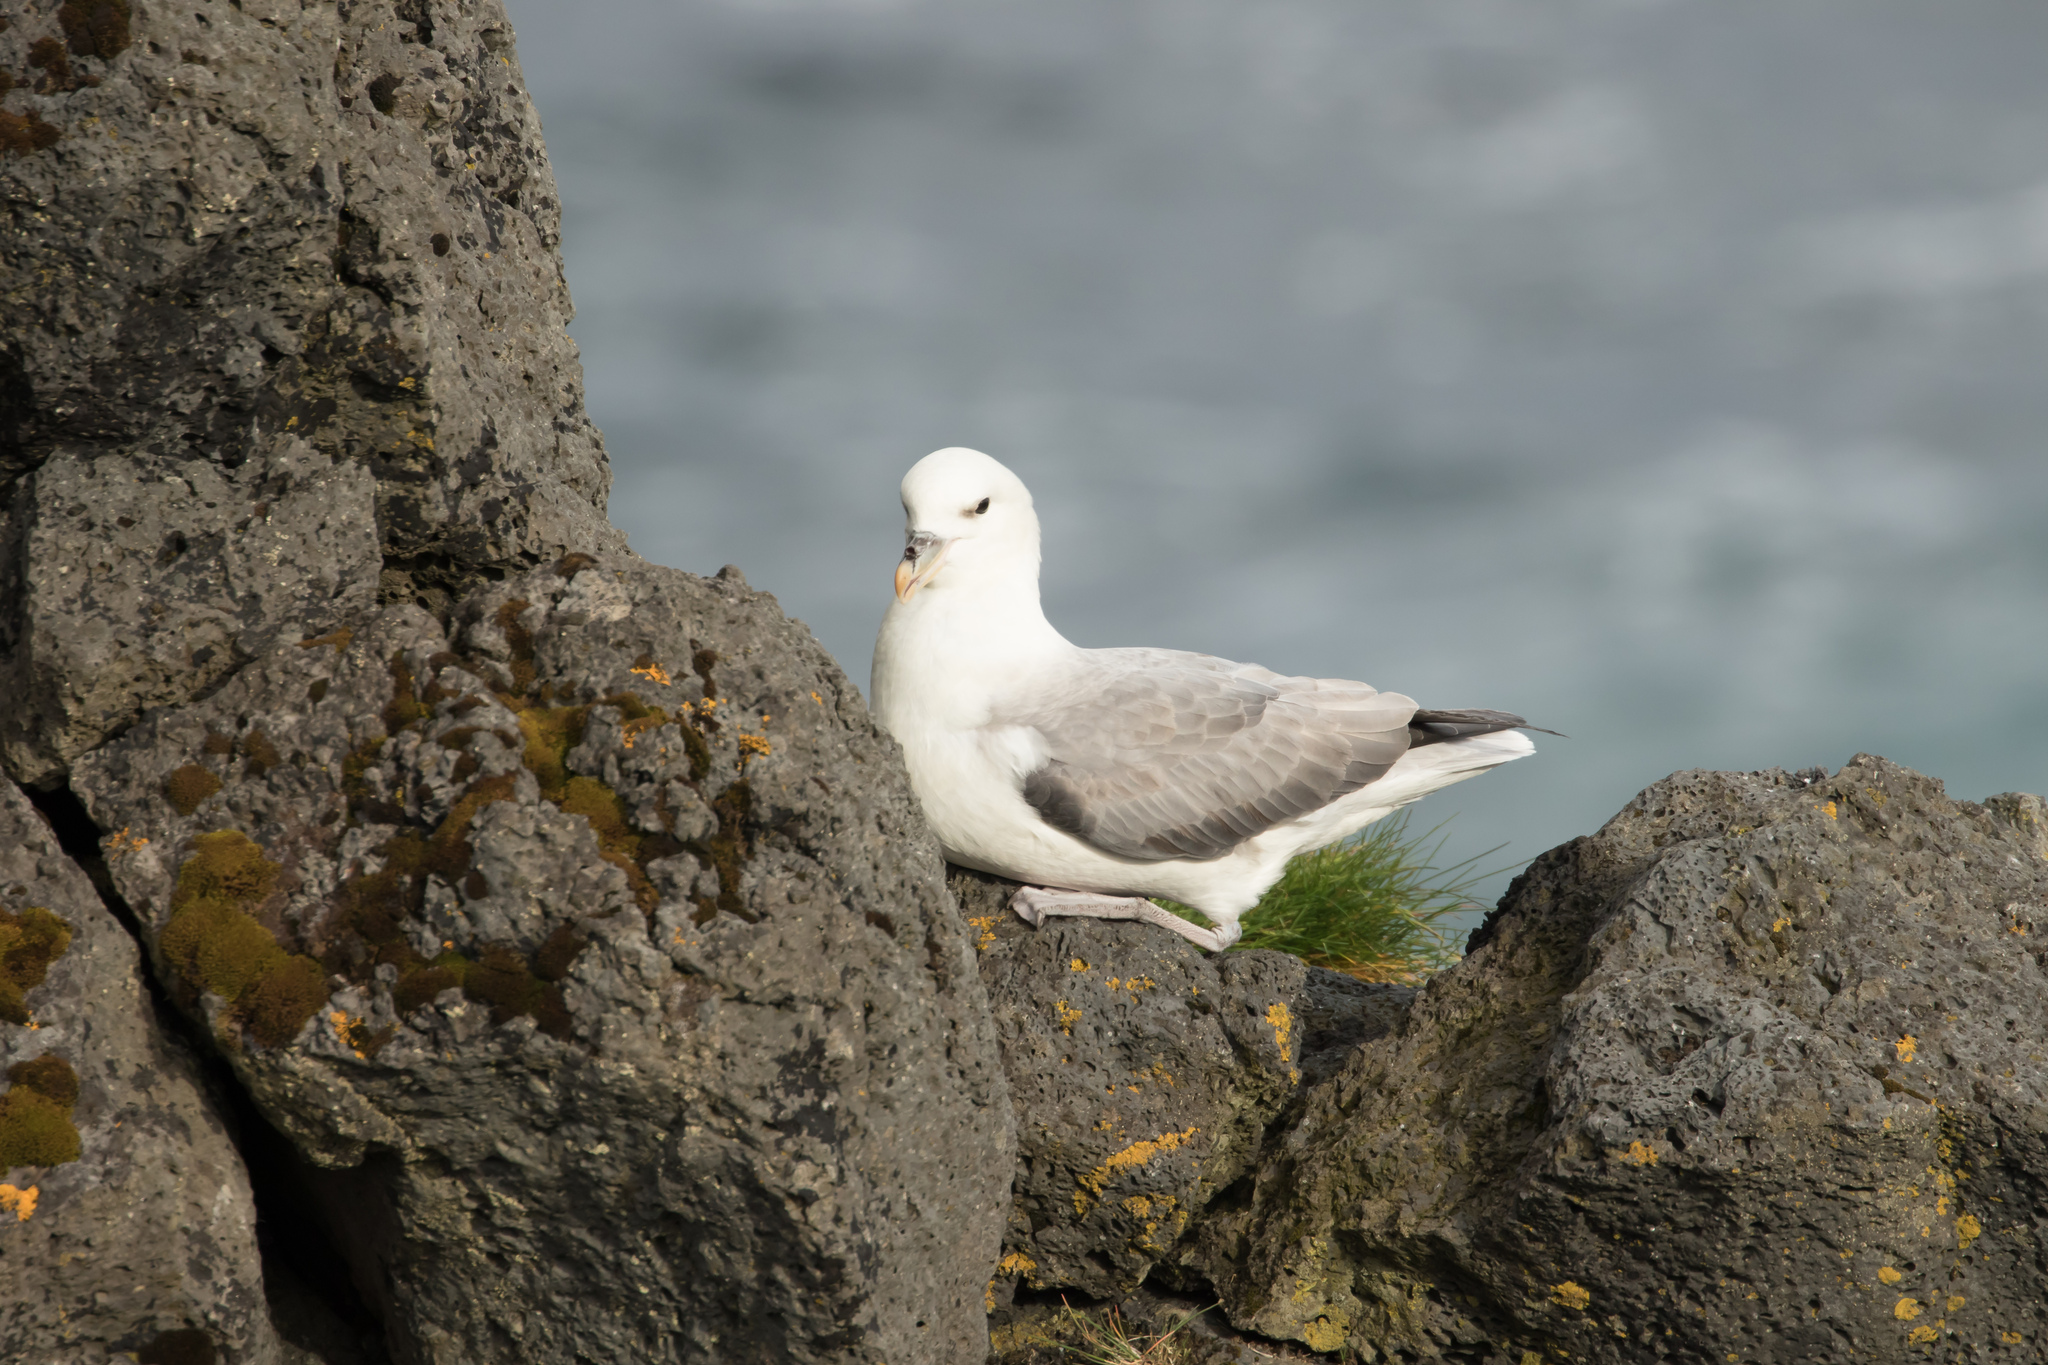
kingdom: Animalia
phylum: Chordata
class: Aves
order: Procellariiformes
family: Procellariidae
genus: Fulmarus
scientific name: Fulmarus glacialis
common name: Northern fulmar
